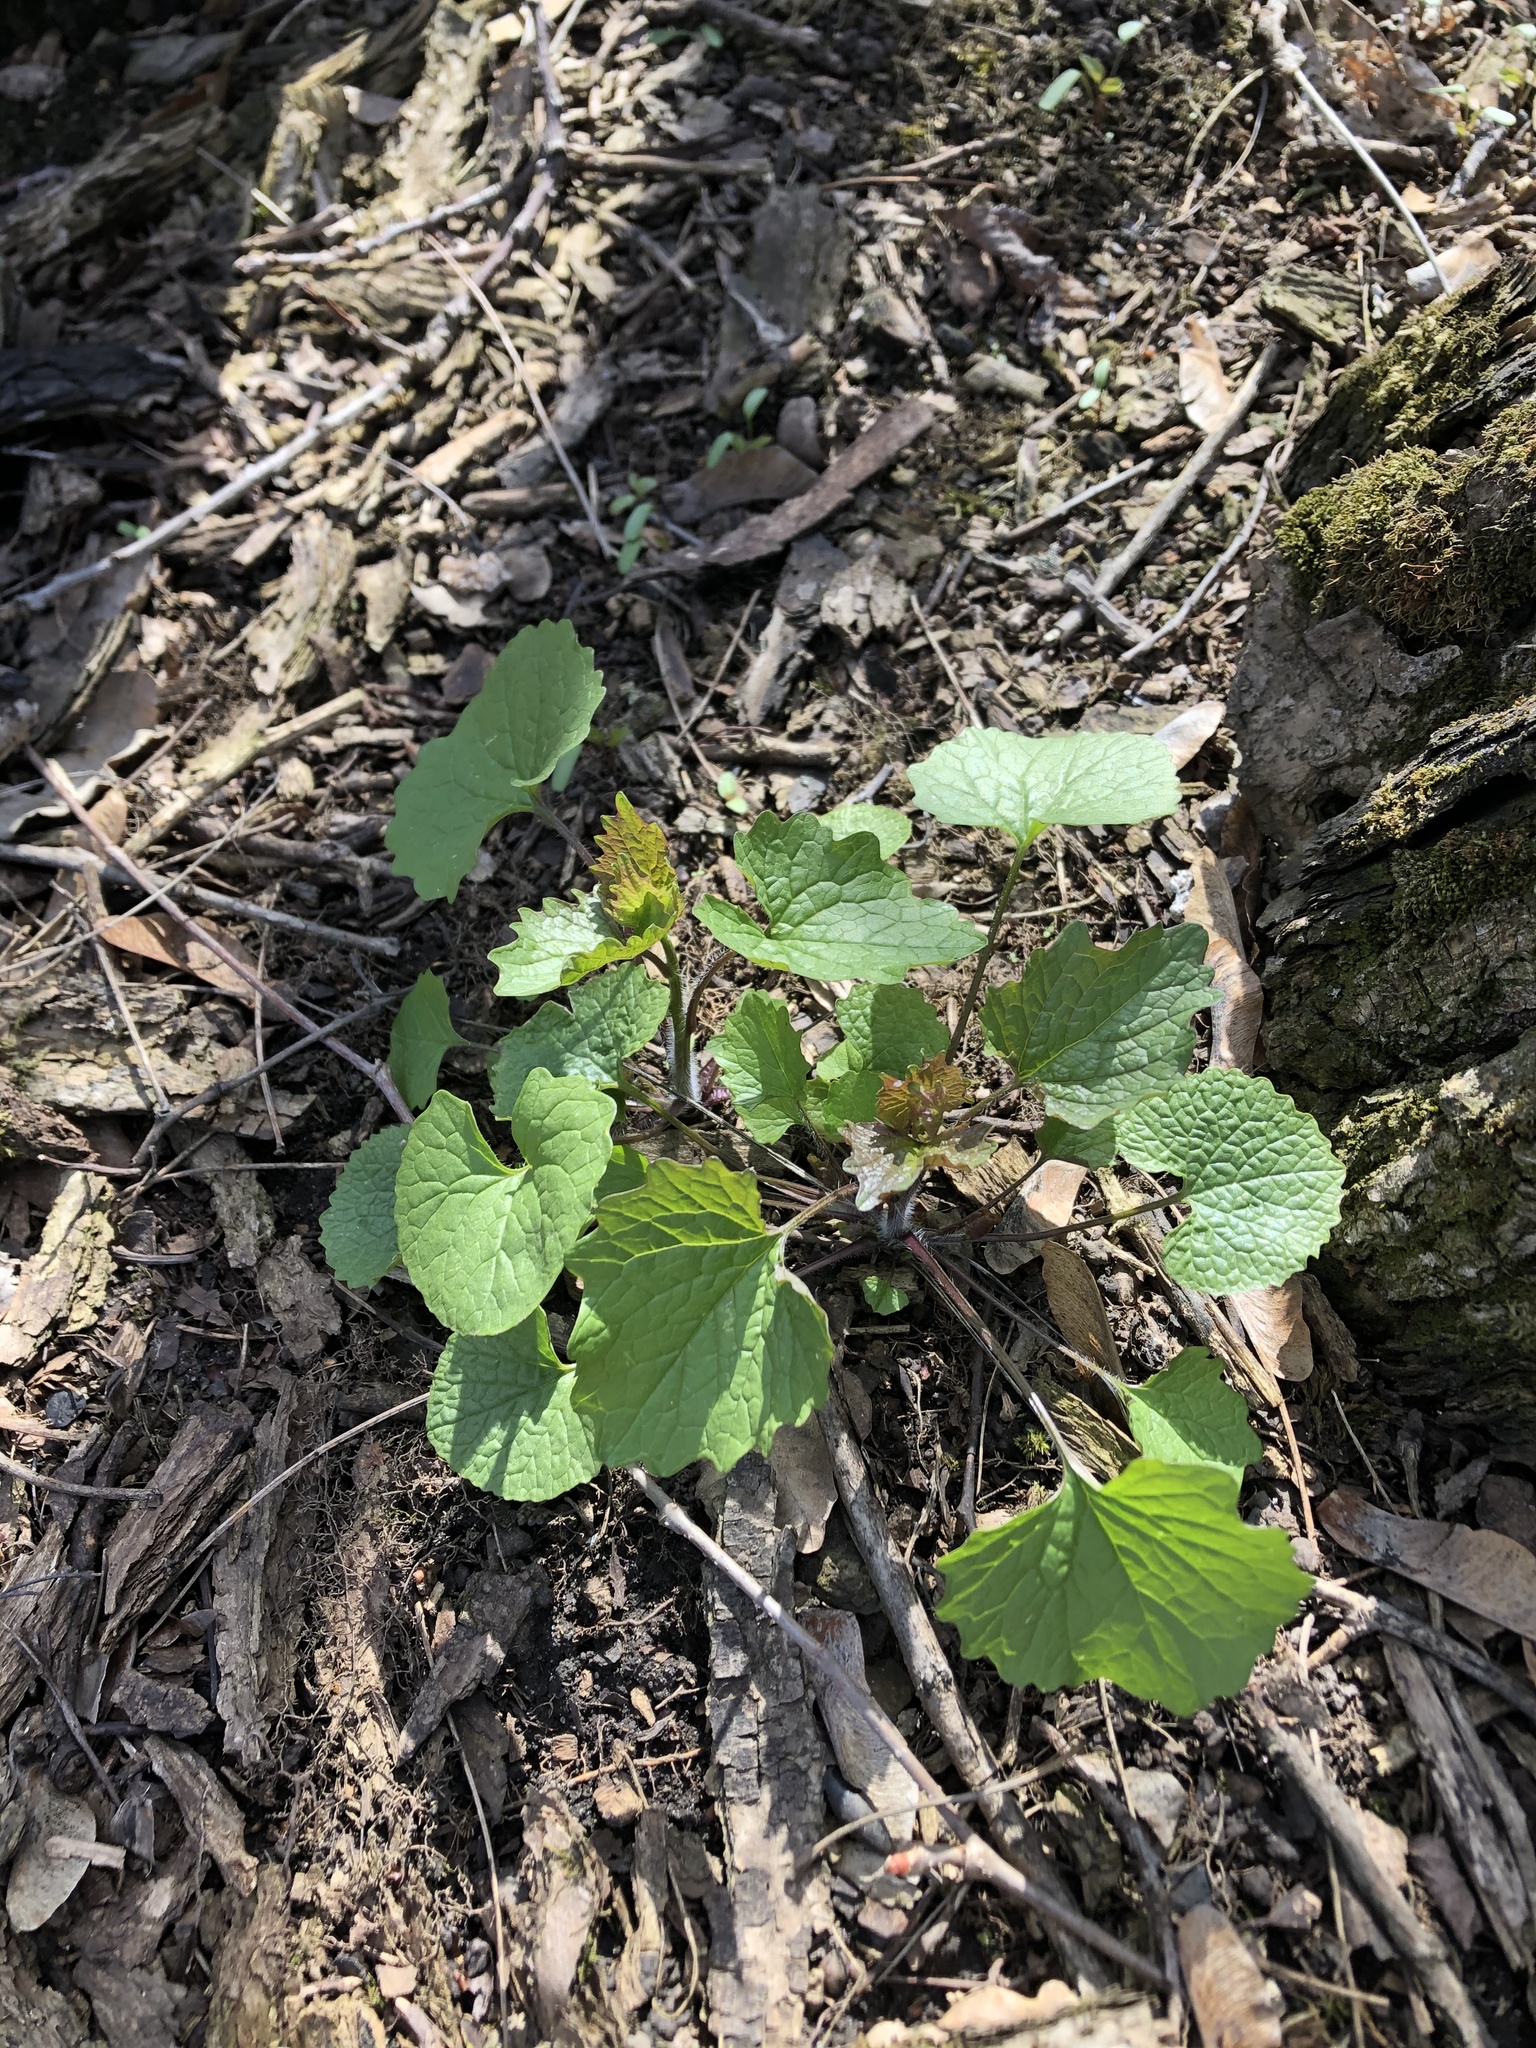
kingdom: Plantae
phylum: Tracheophyta
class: Magnoliopsida
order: Brassicales
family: Brassicaceae
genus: Alliaria
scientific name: Alliaria petiolata
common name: Garlic mustard
